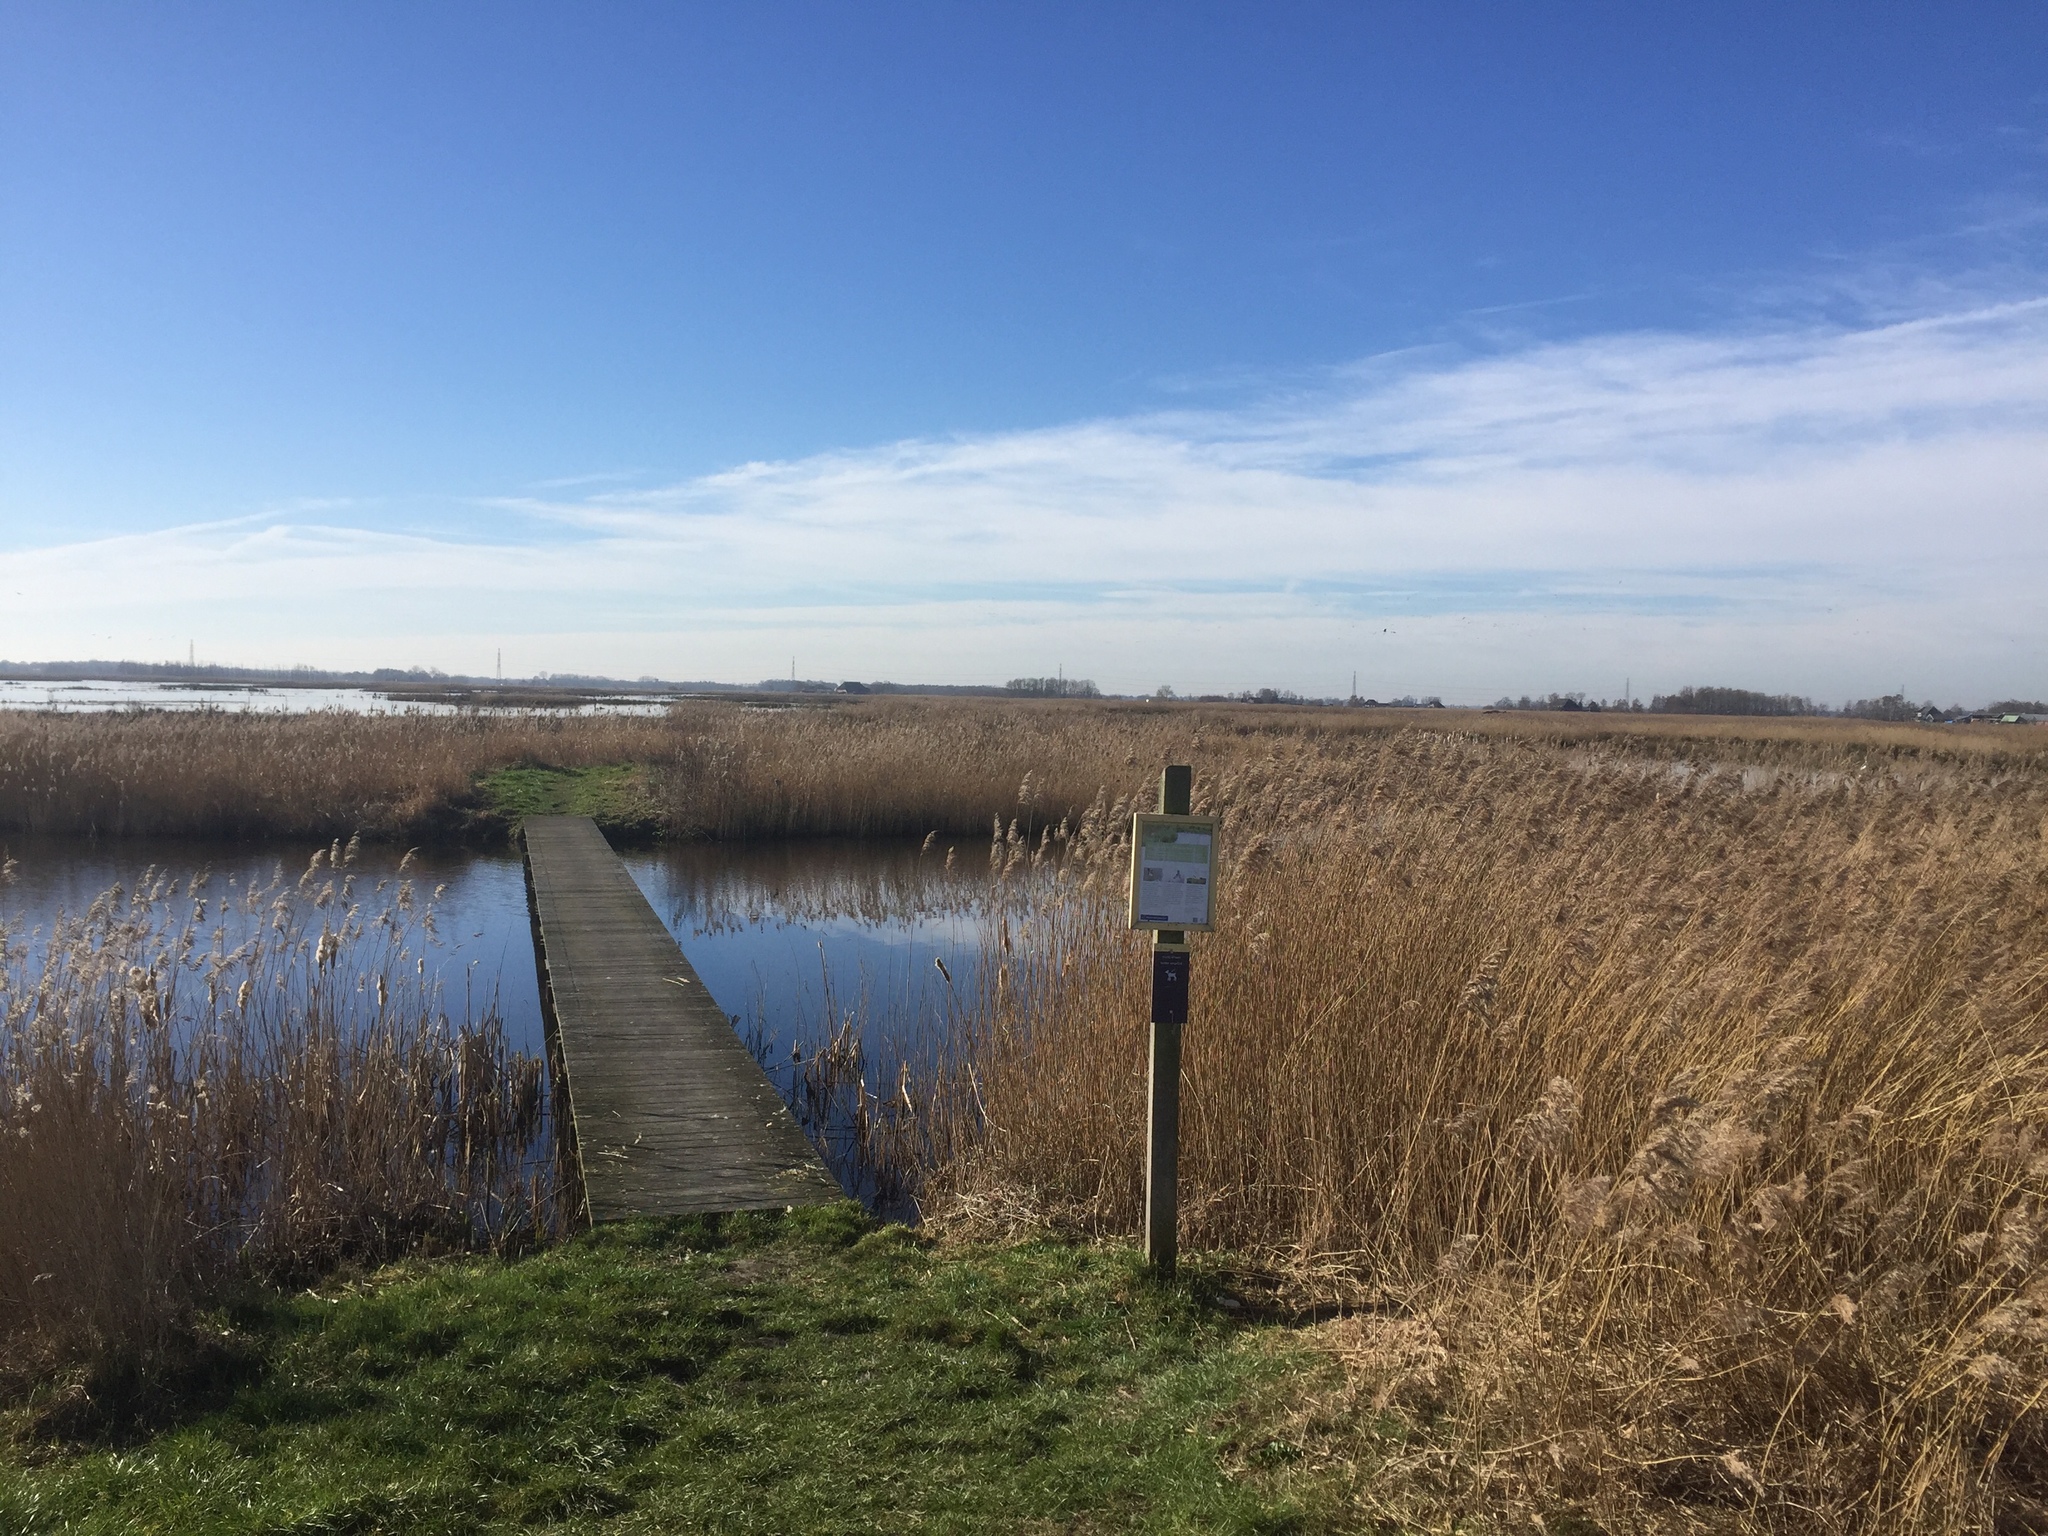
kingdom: Plantae
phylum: Tracheophyta
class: Liliopsida
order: Poales
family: Poaceae
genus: Phragmites
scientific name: Phragmites australis
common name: Common reed
